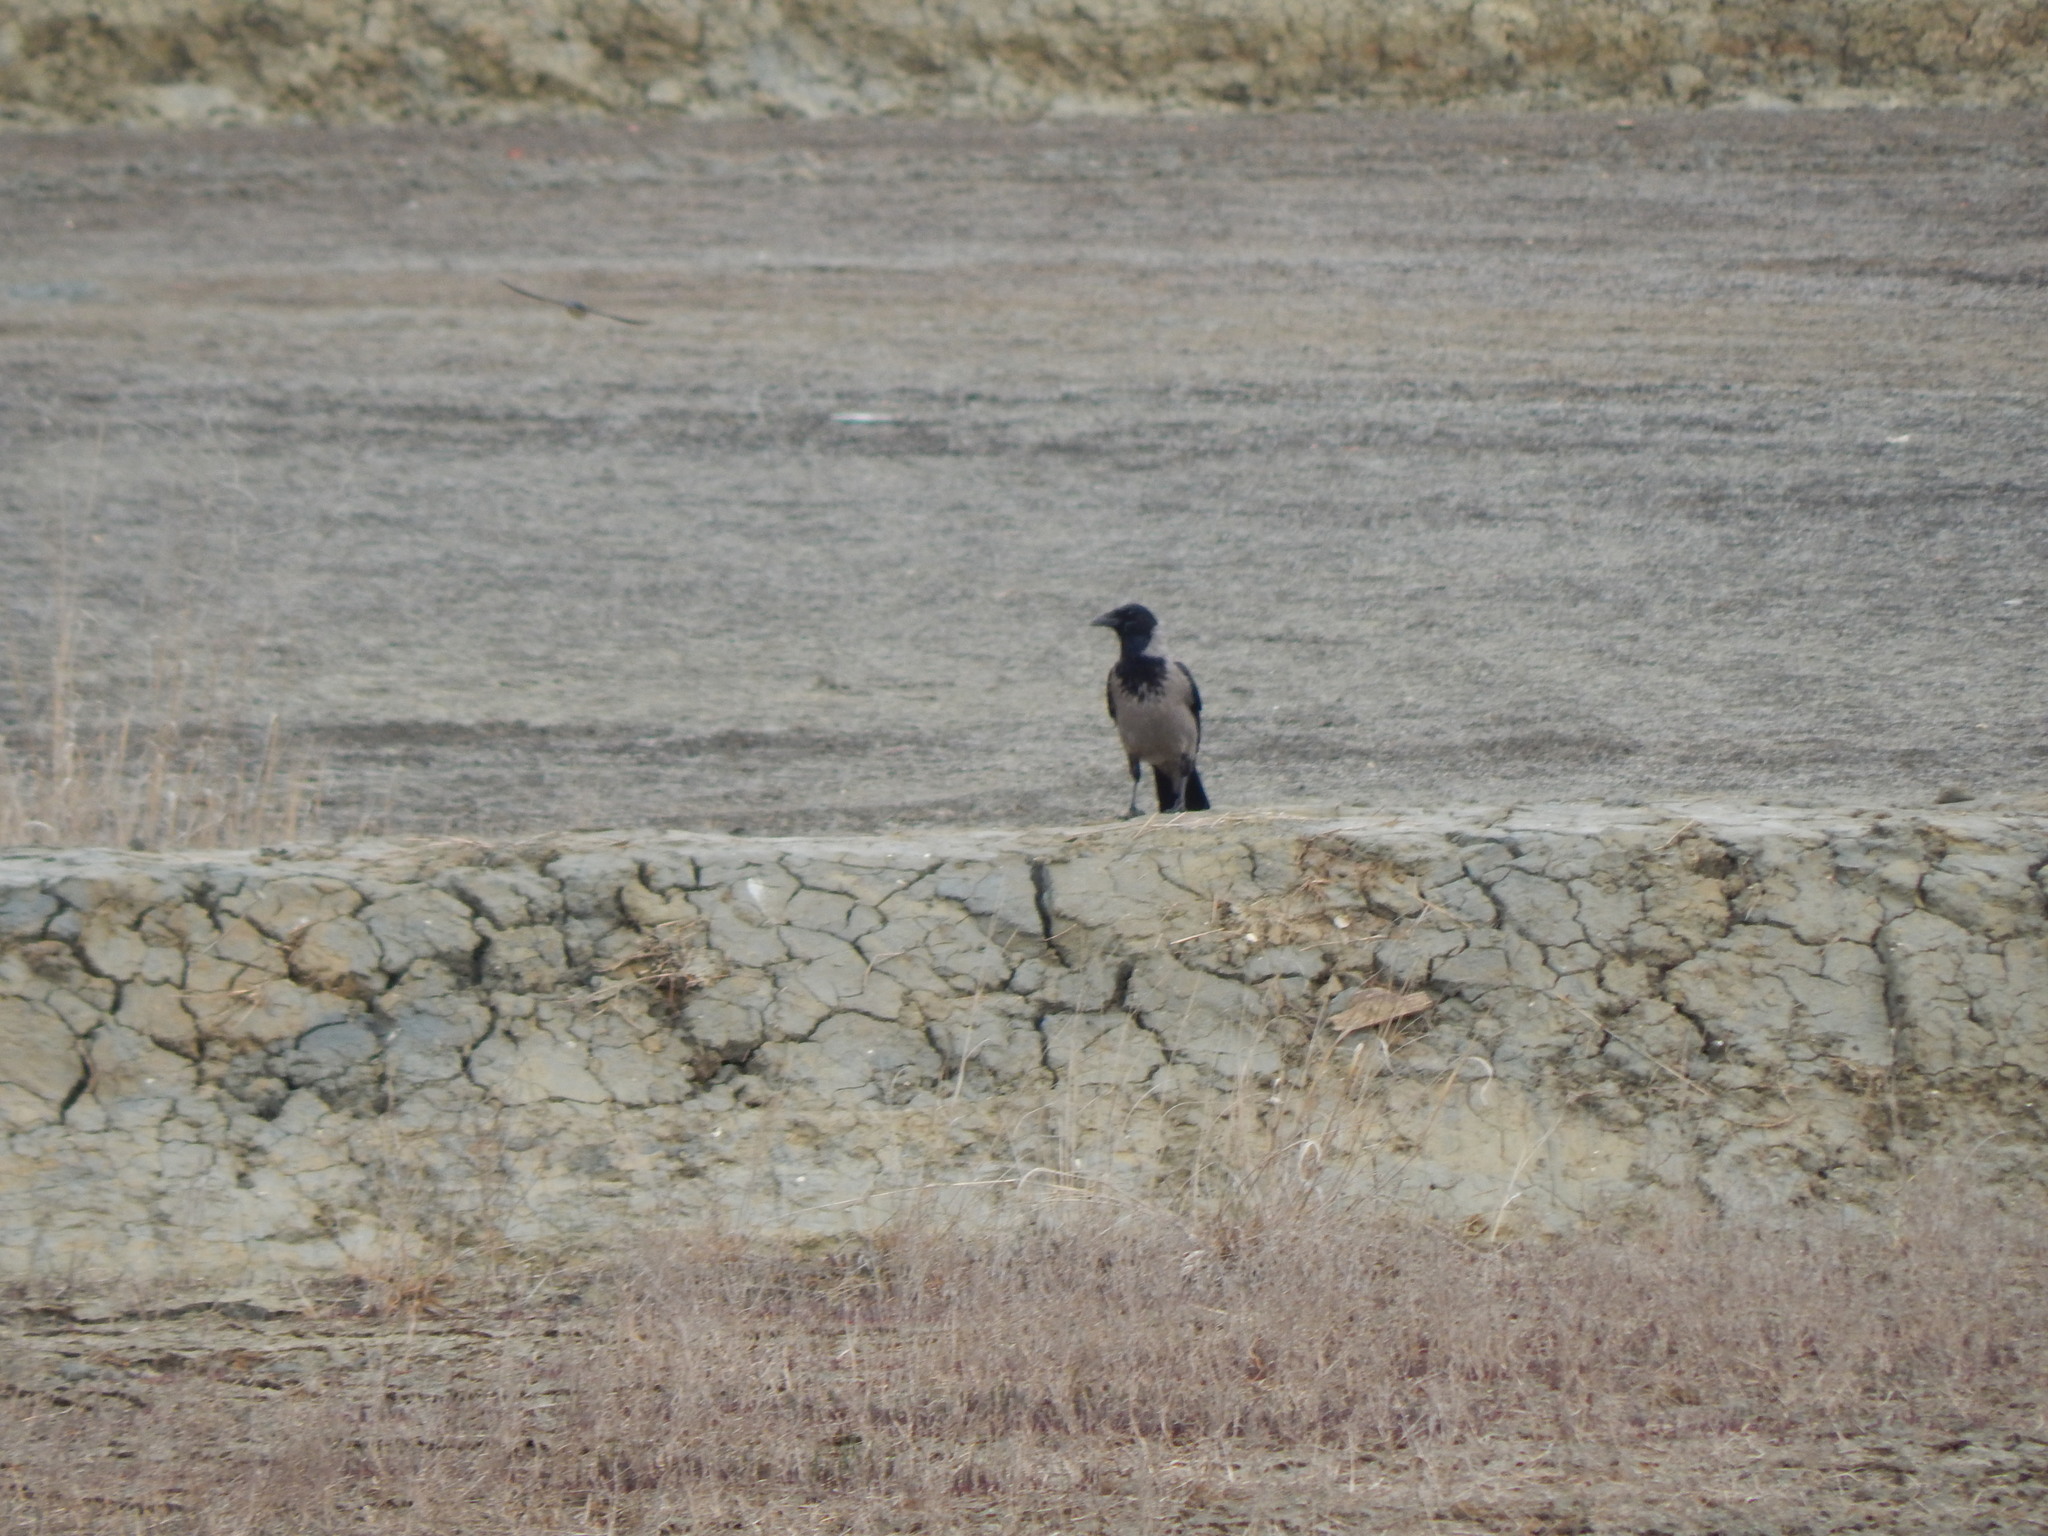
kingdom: Animalia
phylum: Chordata
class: Aves
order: Passeriformes
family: Corvidae
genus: Corvus
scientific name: Corvus cornix
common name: Hooded crow
